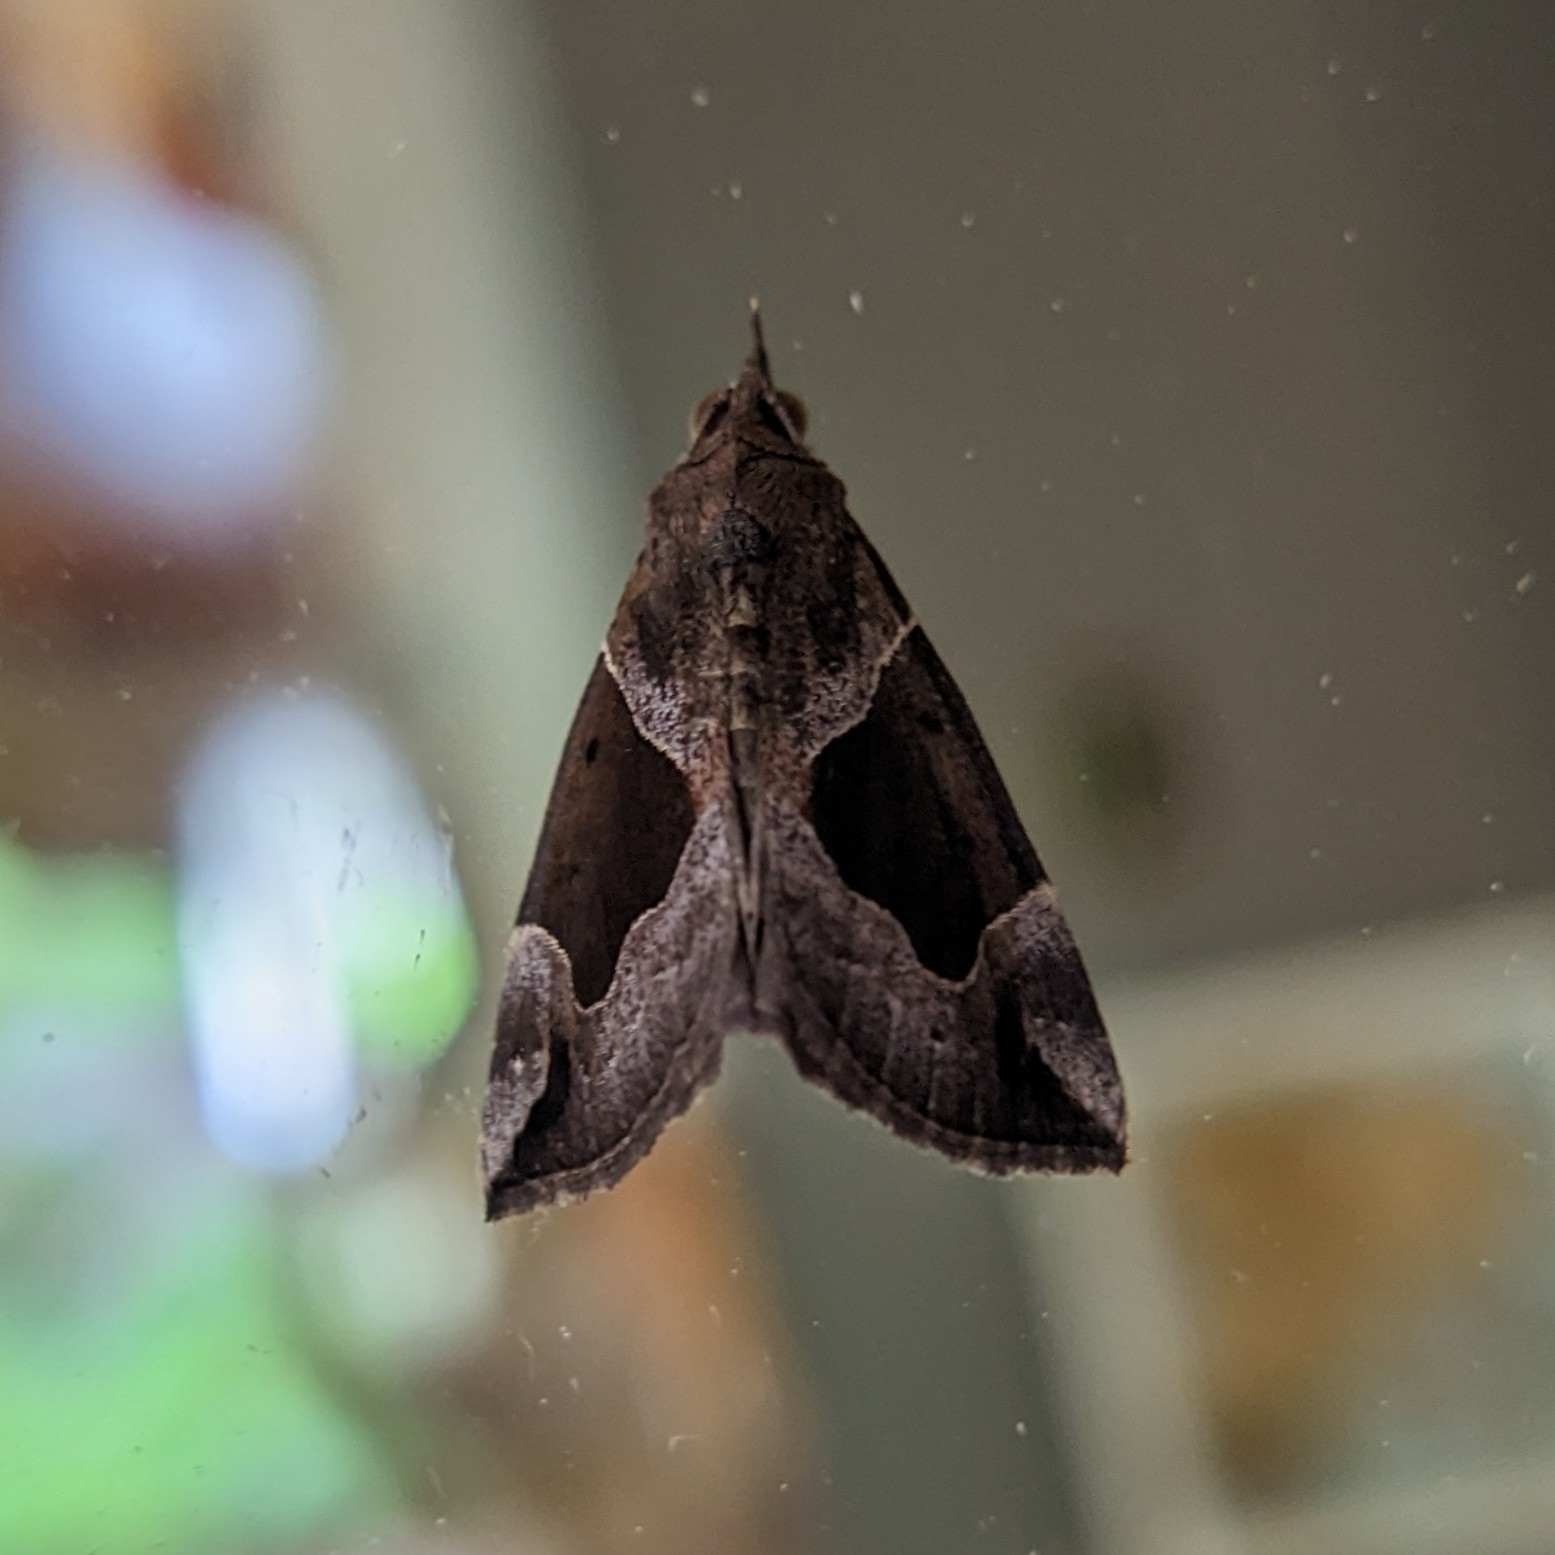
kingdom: Animalia
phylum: Arthropoda
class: Insecta
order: Lepidoptera
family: Erebidae
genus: Hypena
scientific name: Hypena manalis
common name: Flowing-line bomolocha moth
